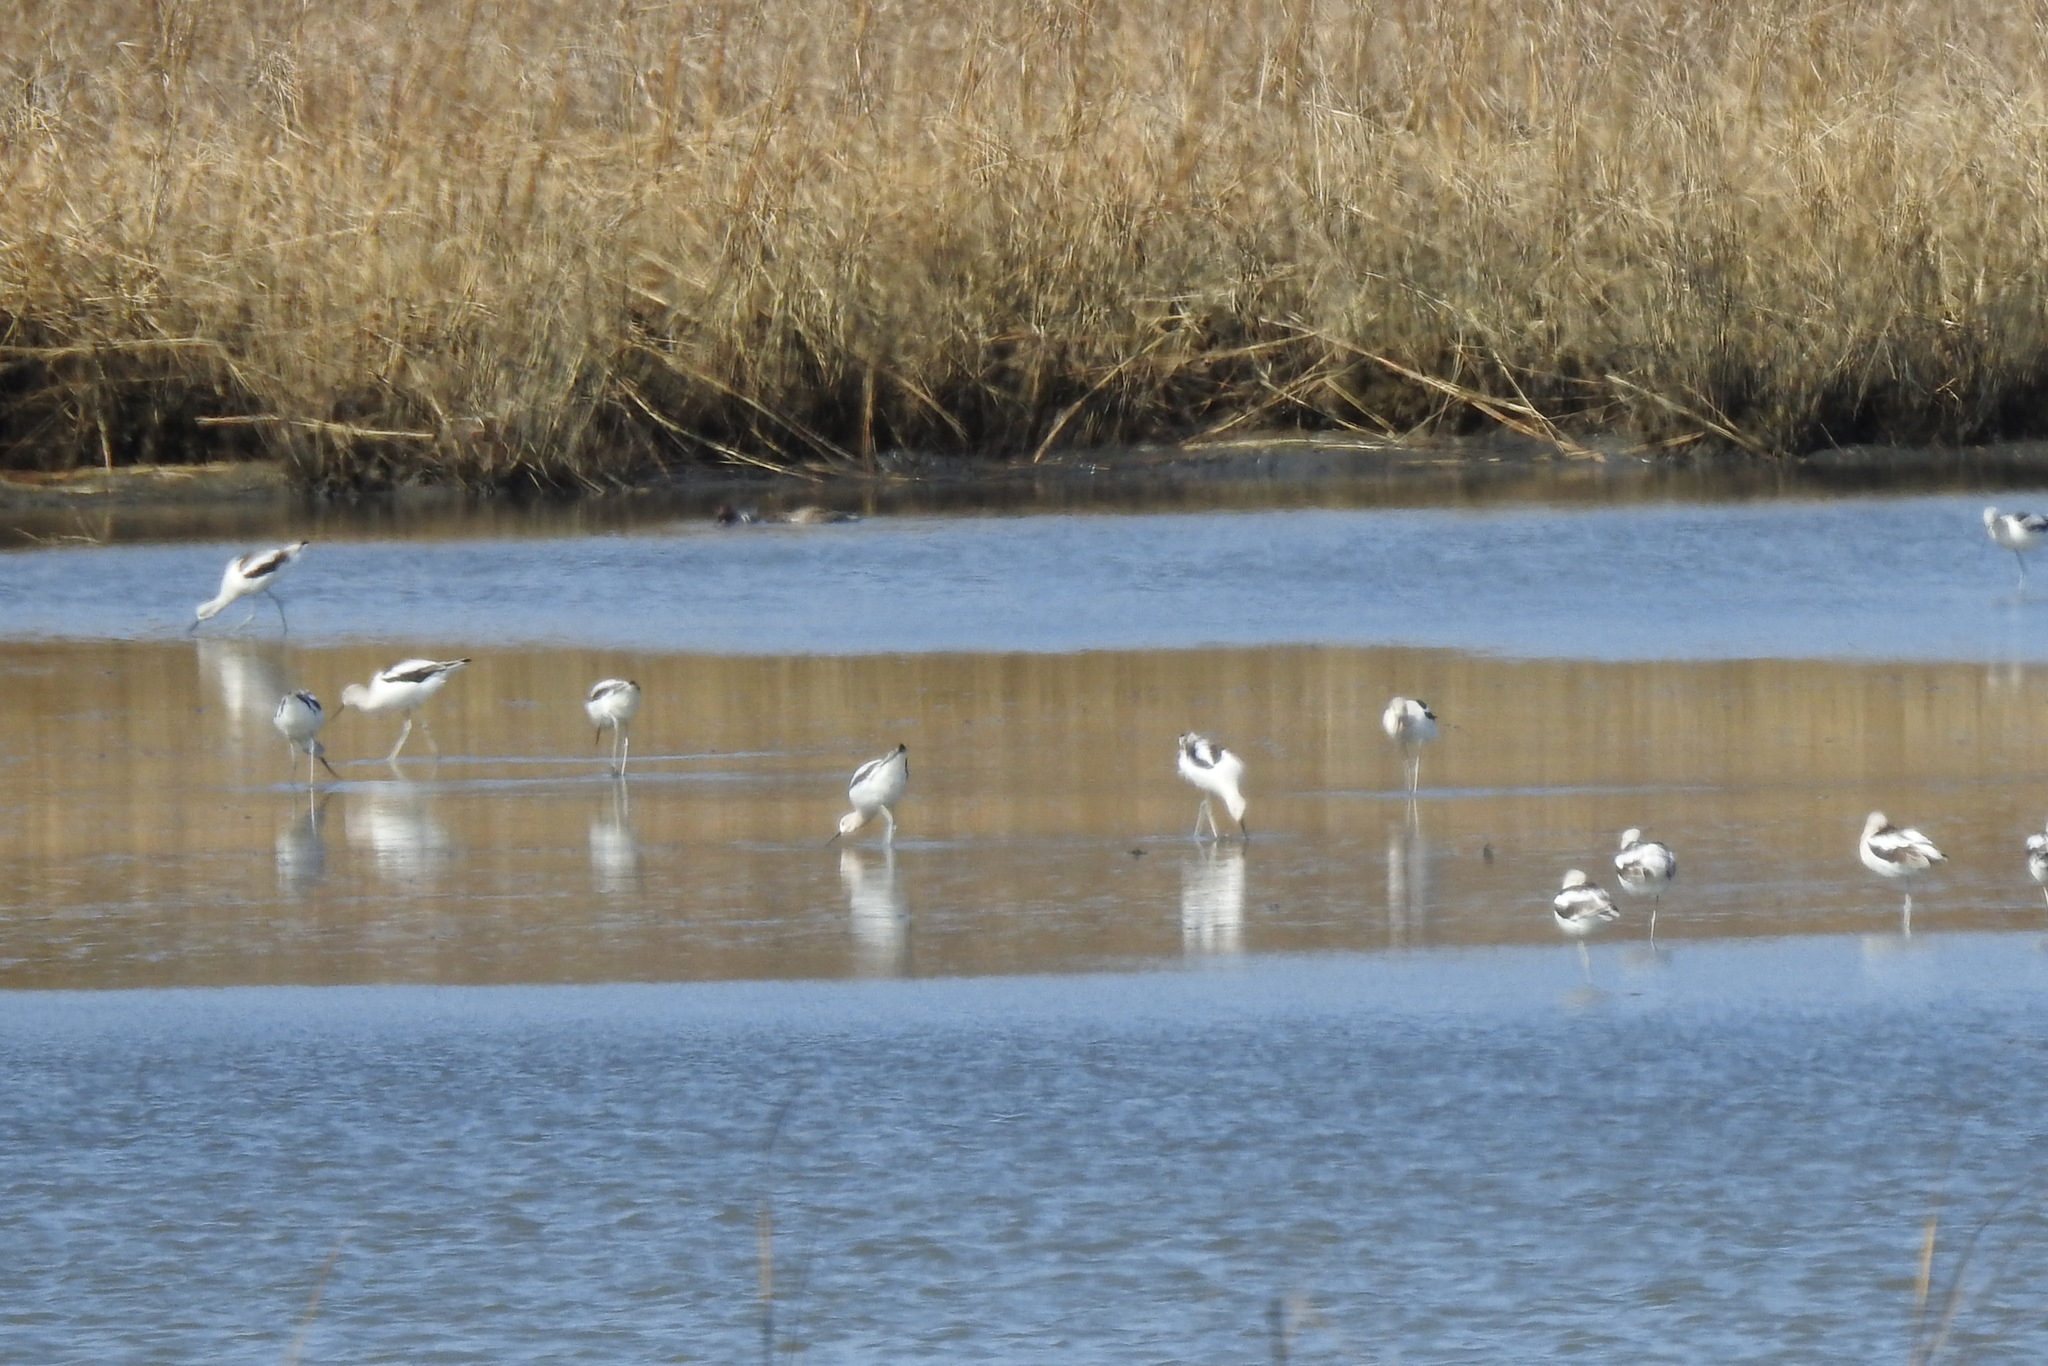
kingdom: Animalia
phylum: Chordata
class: Aves
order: Charadriiformes
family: Recurvirostridae
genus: Recurvirostra
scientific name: Recurvirostra americana
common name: American avocet
